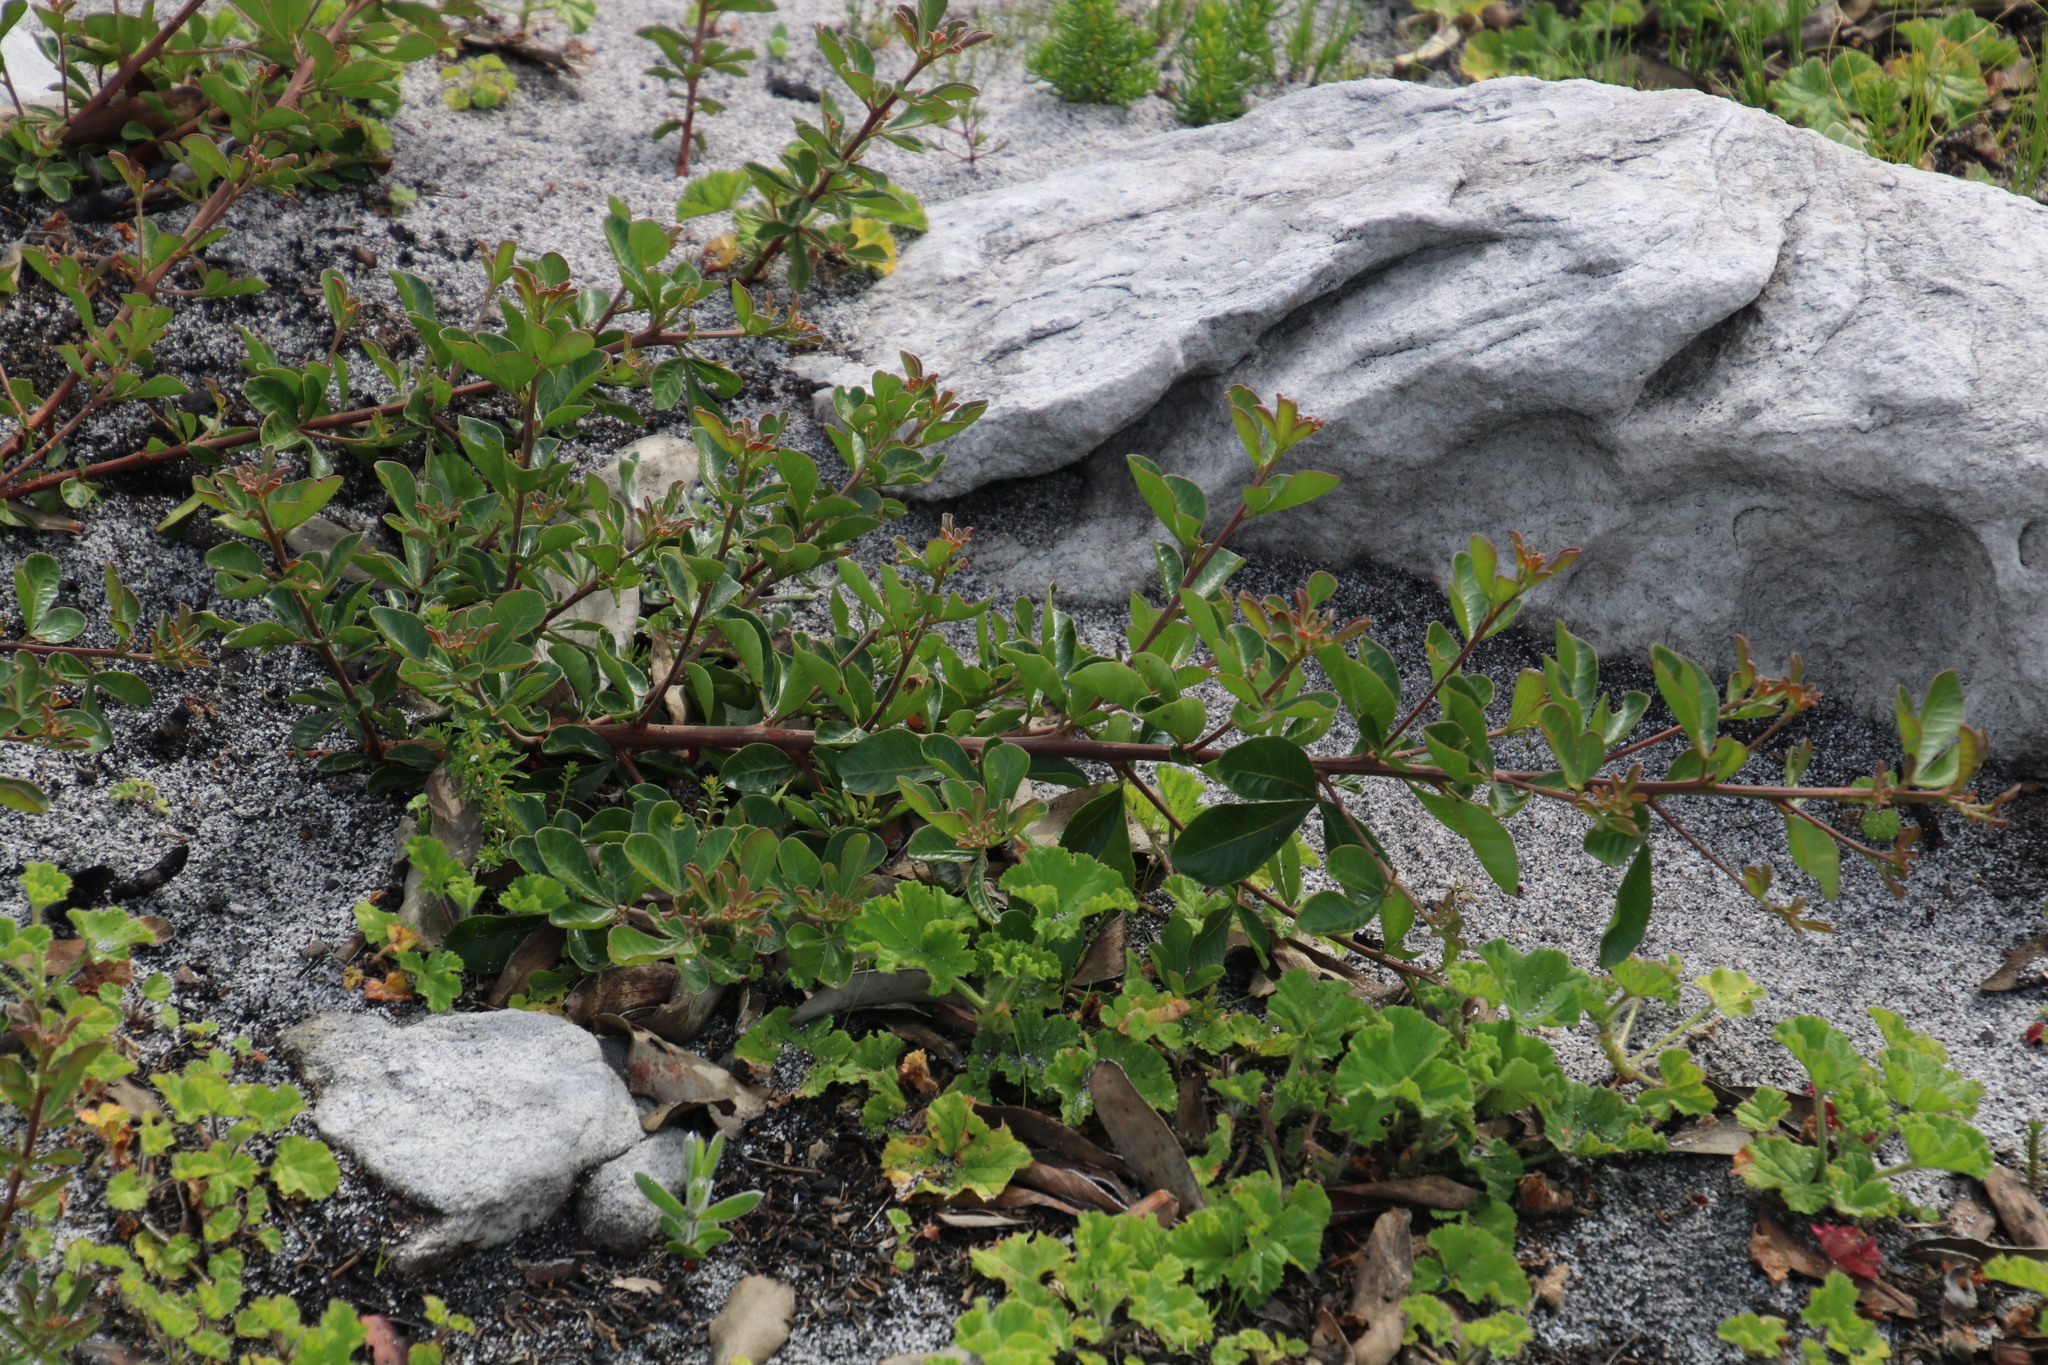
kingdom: Plantae
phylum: Tracheophyta
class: Magnoliopsida
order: Sapindales
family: Anacardiaceae
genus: Searsia
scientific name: Searsia laevigata
